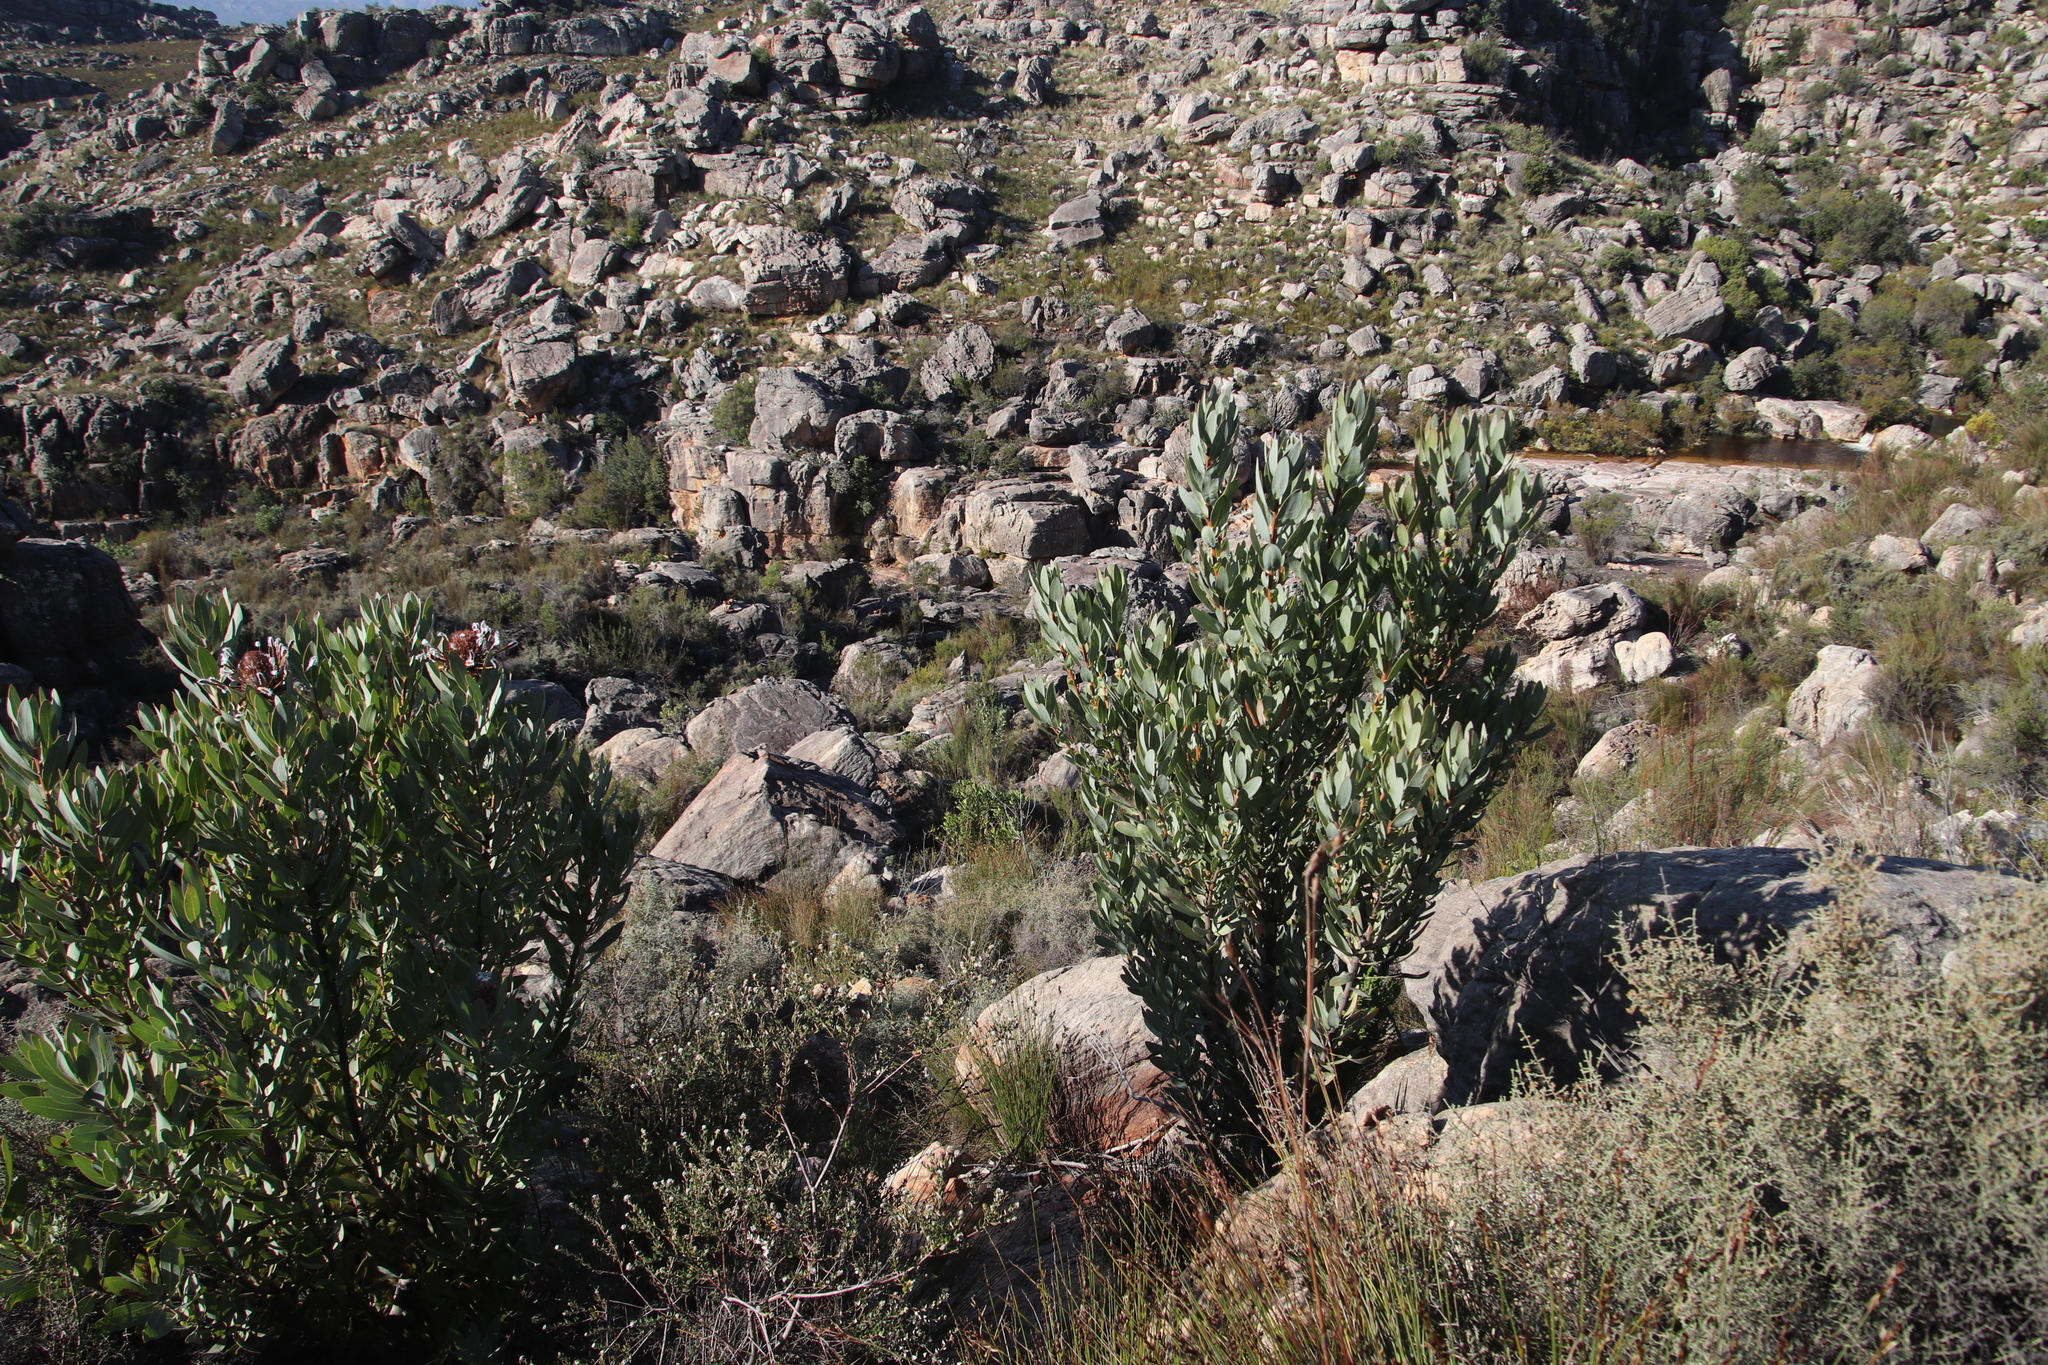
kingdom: Plantae
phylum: Tracheophyta
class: Magnoliopsida
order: Proteales
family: Proteaceae
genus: Protea
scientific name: Protea laurifolia
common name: Grey-leaf sugarbsh
